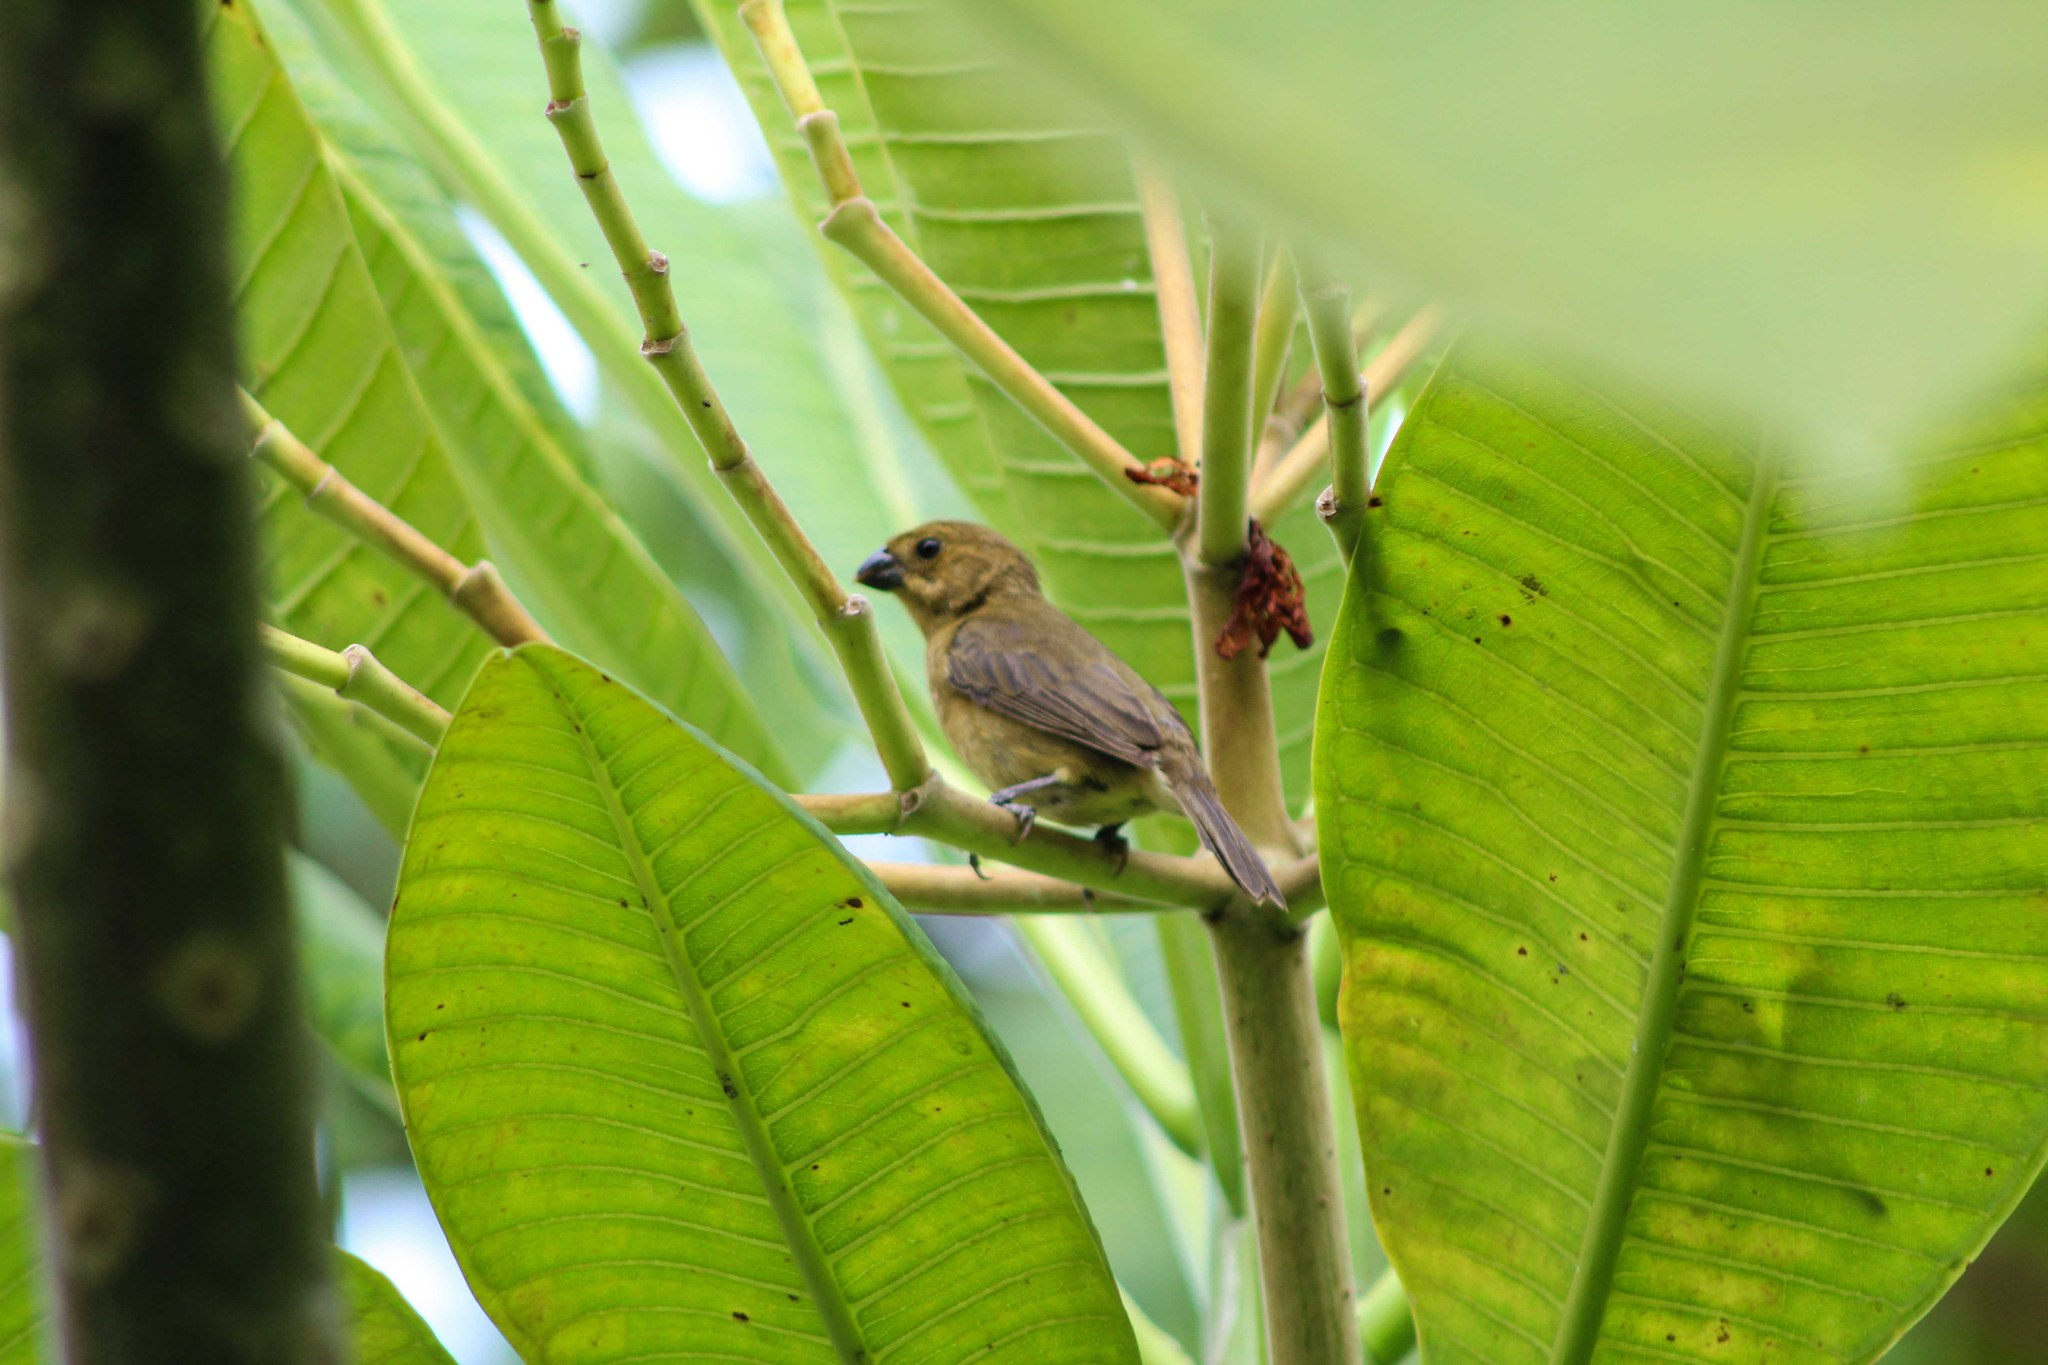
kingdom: Animalia
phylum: Chordata
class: Aves
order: Passeriformes
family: Thraupidae
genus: Sporophila
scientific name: Sporophila corvina
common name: Variable seedeater
